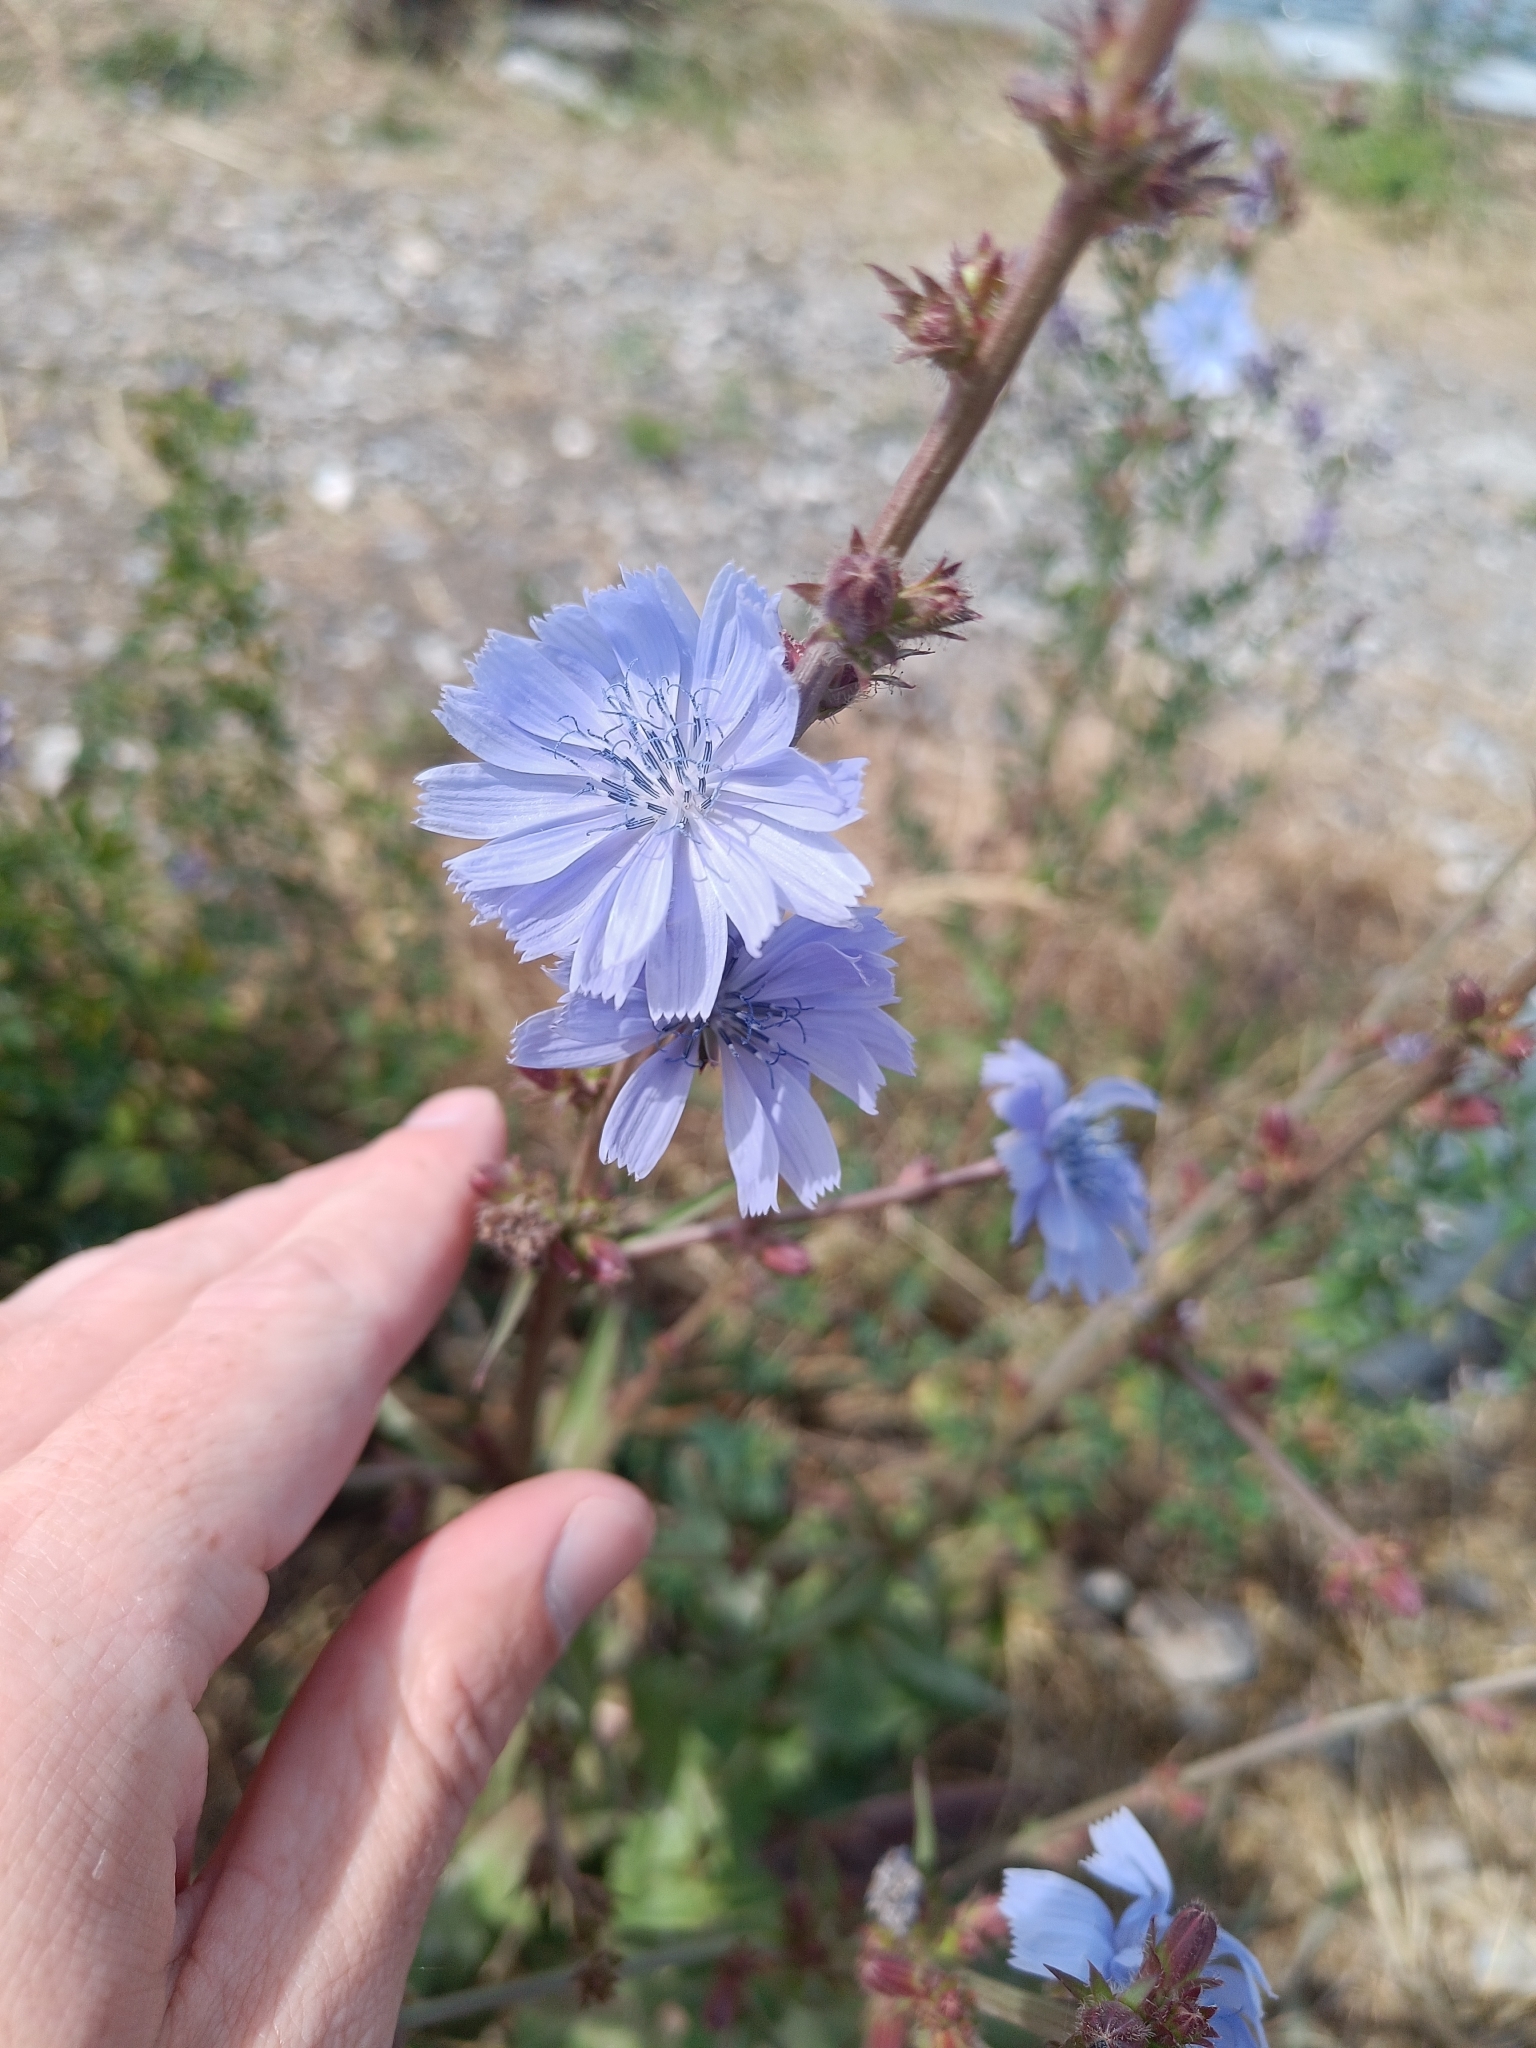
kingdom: Plantae
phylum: Tracheophyta
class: Magnoliopsida
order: Asterales
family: Asteraceae
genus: Cichorium
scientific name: Cichorium intybus
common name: Chicory
